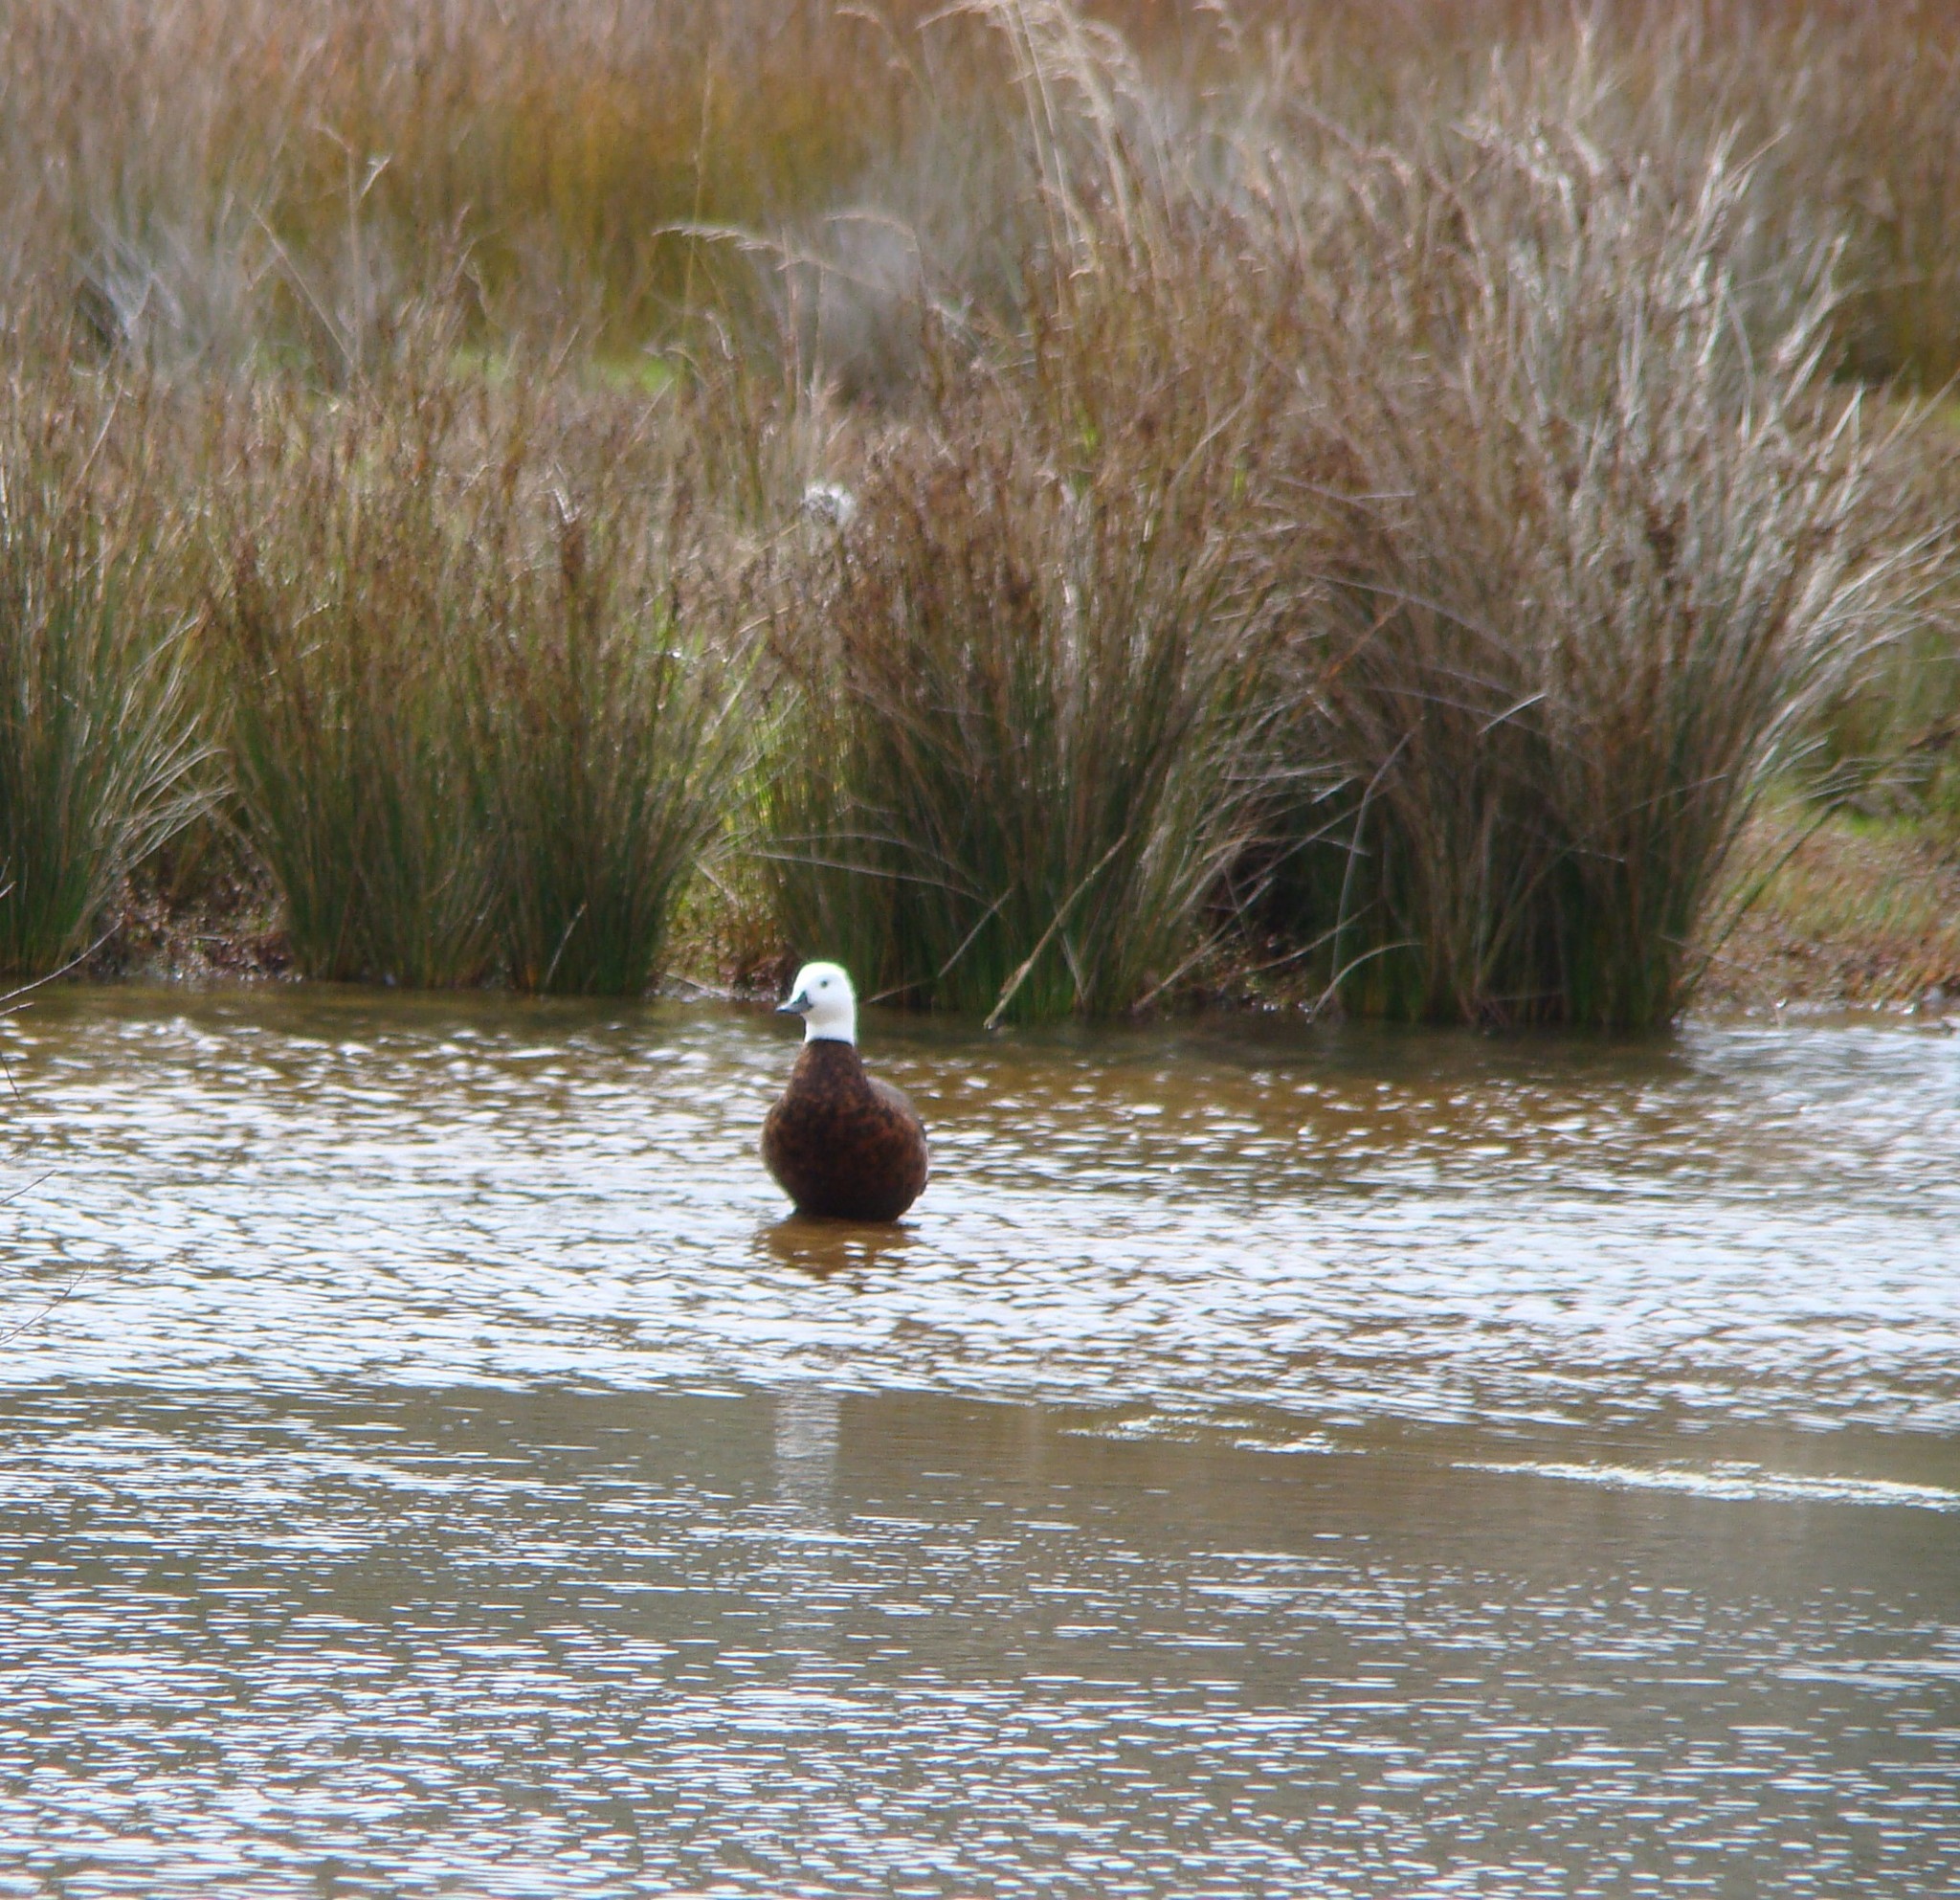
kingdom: Animalia
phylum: Chordata
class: Aves
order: Anseriformes
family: Anatidae
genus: Tadorna
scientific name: Tadorna variegata
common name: Paradise shelduck
